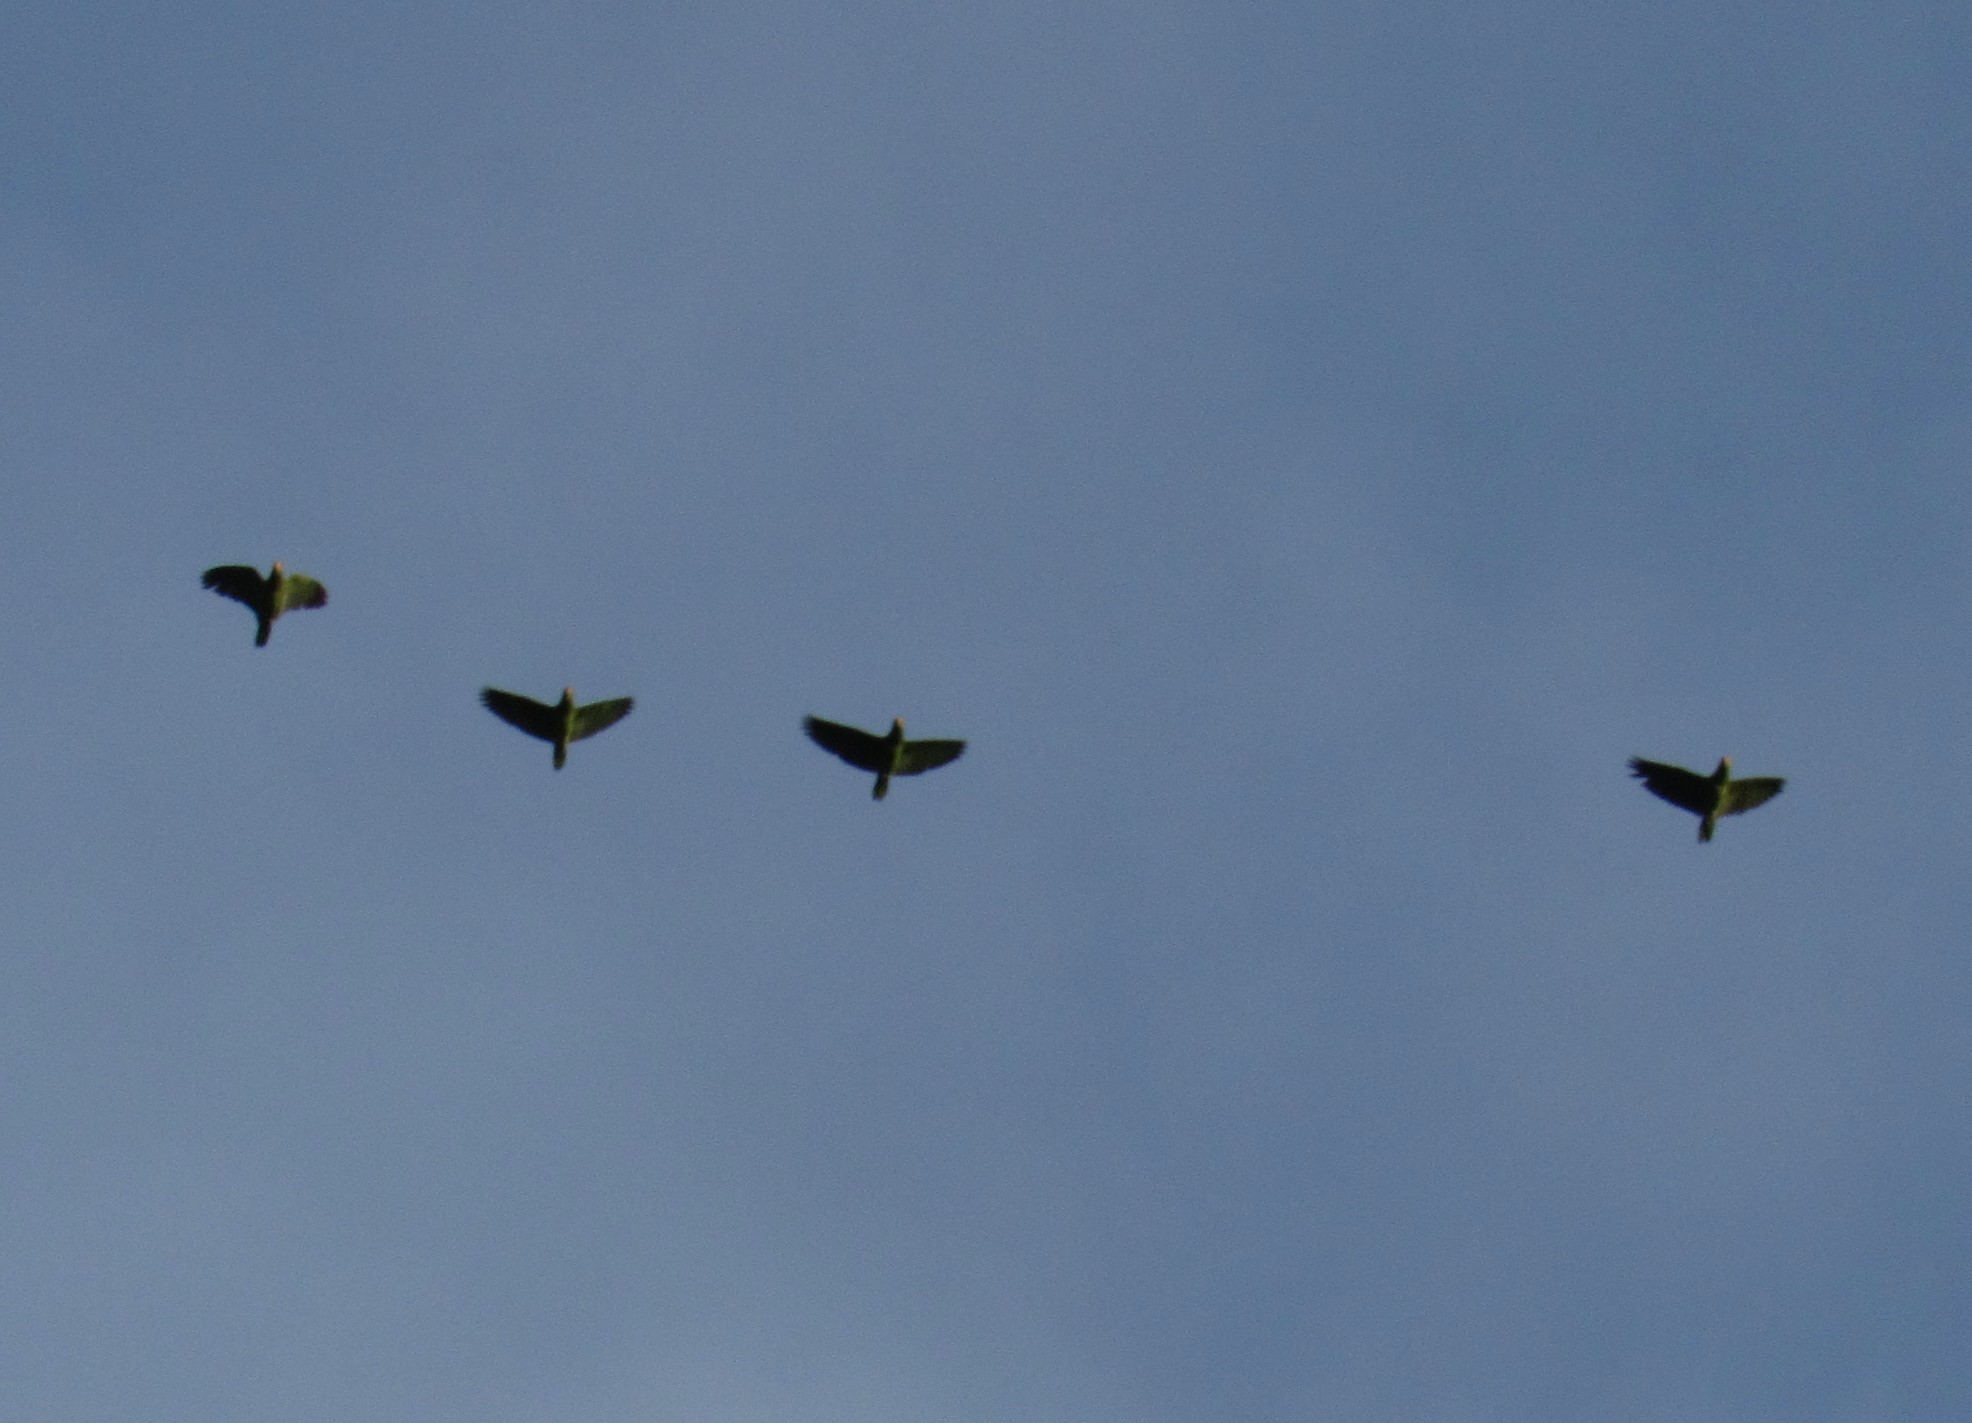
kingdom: Animalia
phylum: Chordata
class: Aves
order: Psittaciformes
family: Psittacidae
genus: Amazona
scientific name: Amazona
